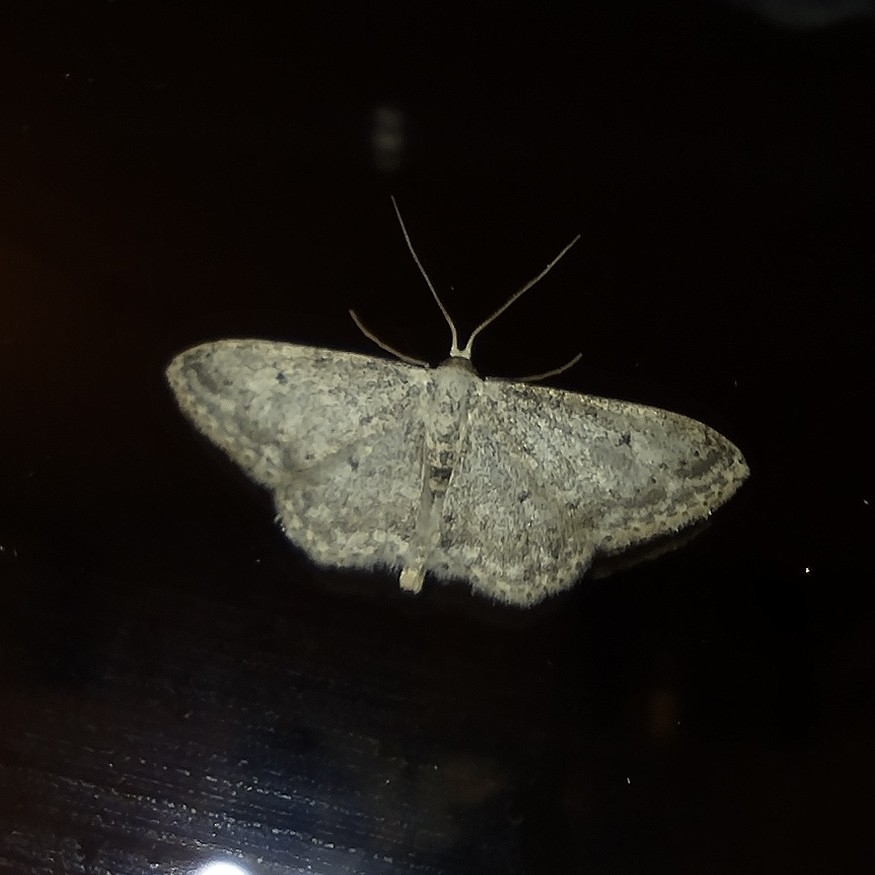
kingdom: Animalia
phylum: Arthropoda
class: Insecta
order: Lepidoptera
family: Geometridae
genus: Idaea
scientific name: Idaea seriata
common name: Small dusty wave
